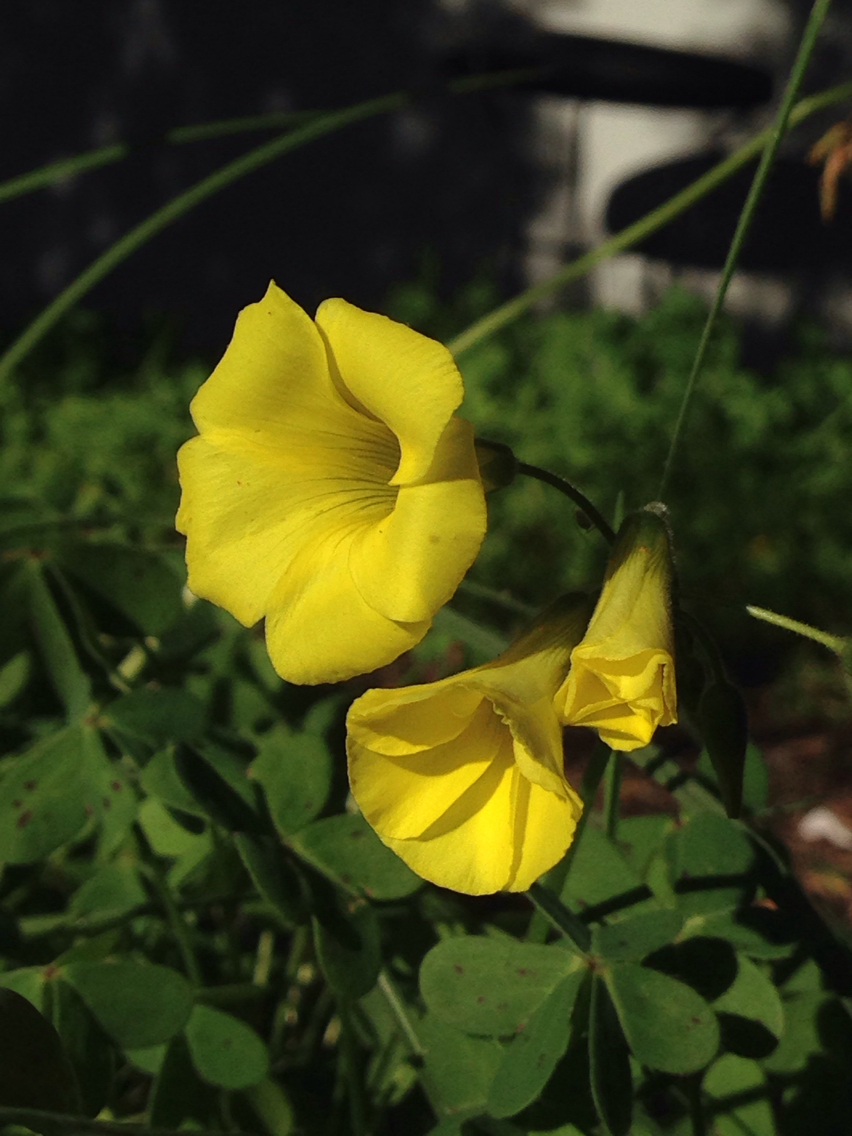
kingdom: Plantae
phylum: Tracheophyta
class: Magnoliopsida
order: Oxalidales
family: Oxalidaceae
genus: Oxalis
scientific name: Oxalis pes-caprae
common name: Bermuda-buttercup
